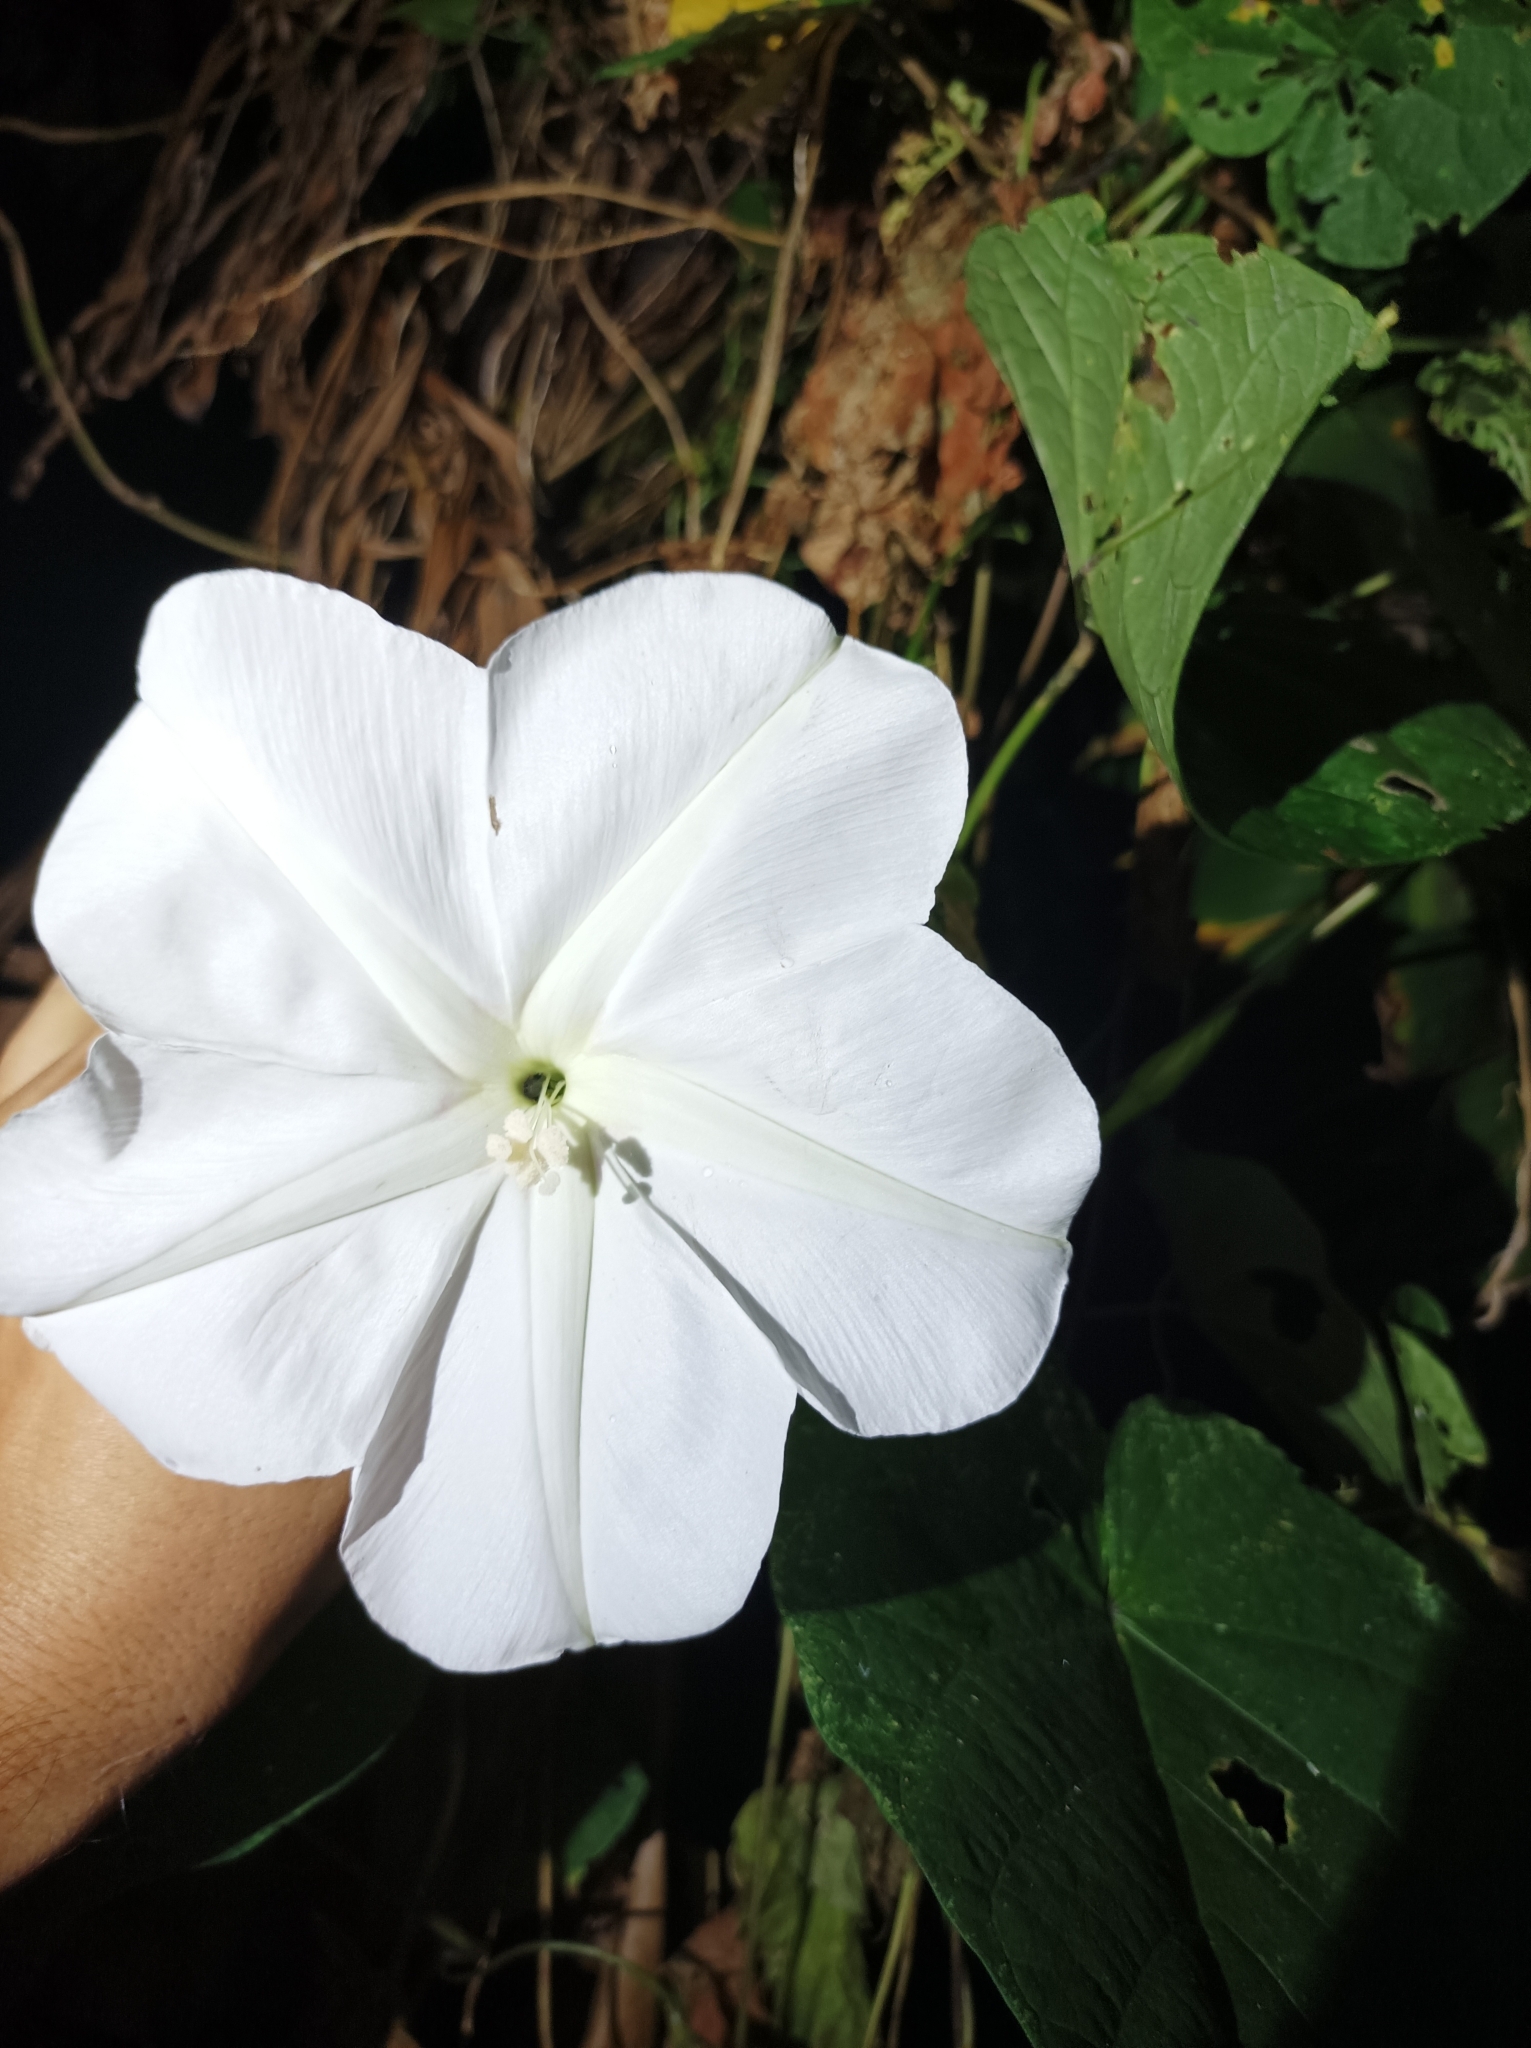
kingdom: Plantae
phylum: Tracheophyta
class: Magnoliopsida
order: Solanales
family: Convolvulaceae
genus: Ipomoea
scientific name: Ipomoea alba
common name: Moonflower
